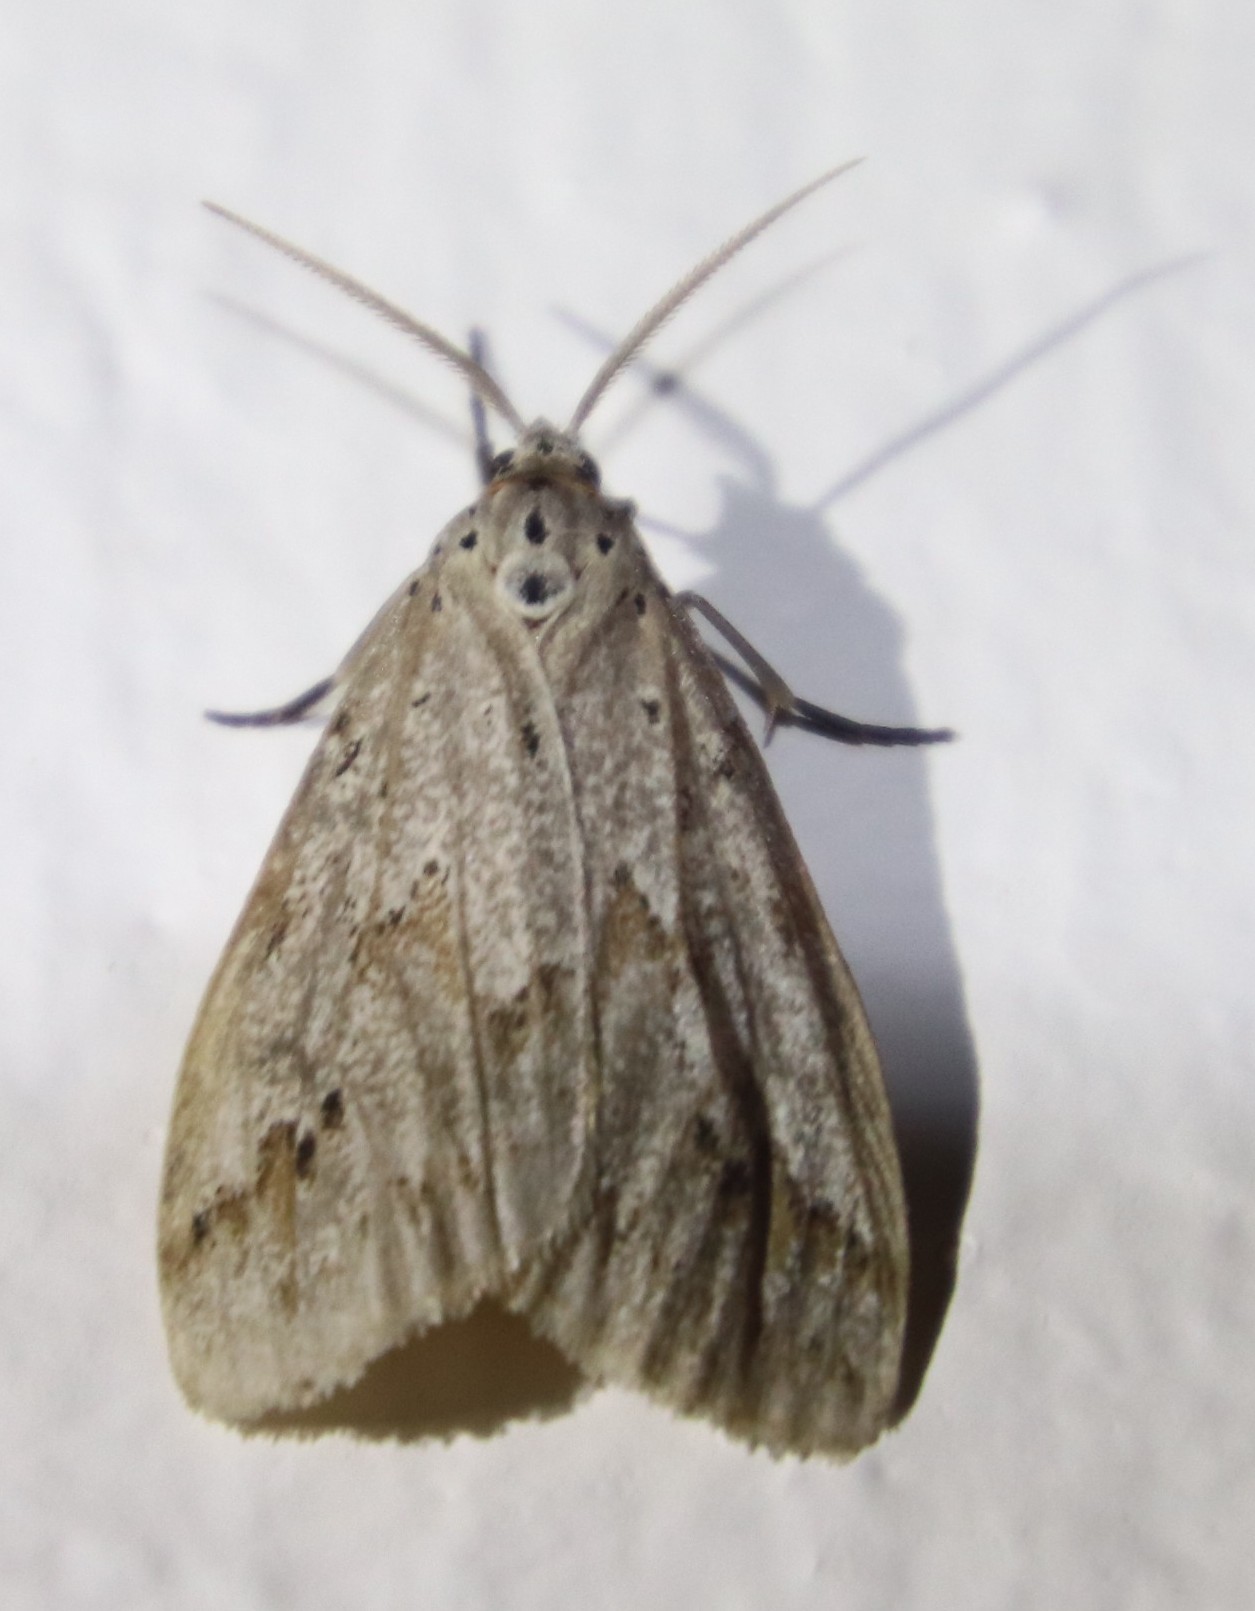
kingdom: Animalia
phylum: Arthropoda
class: Insecta
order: Lepidoptera
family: Erebidae
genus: Galtara
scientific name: Galtara rostrata
